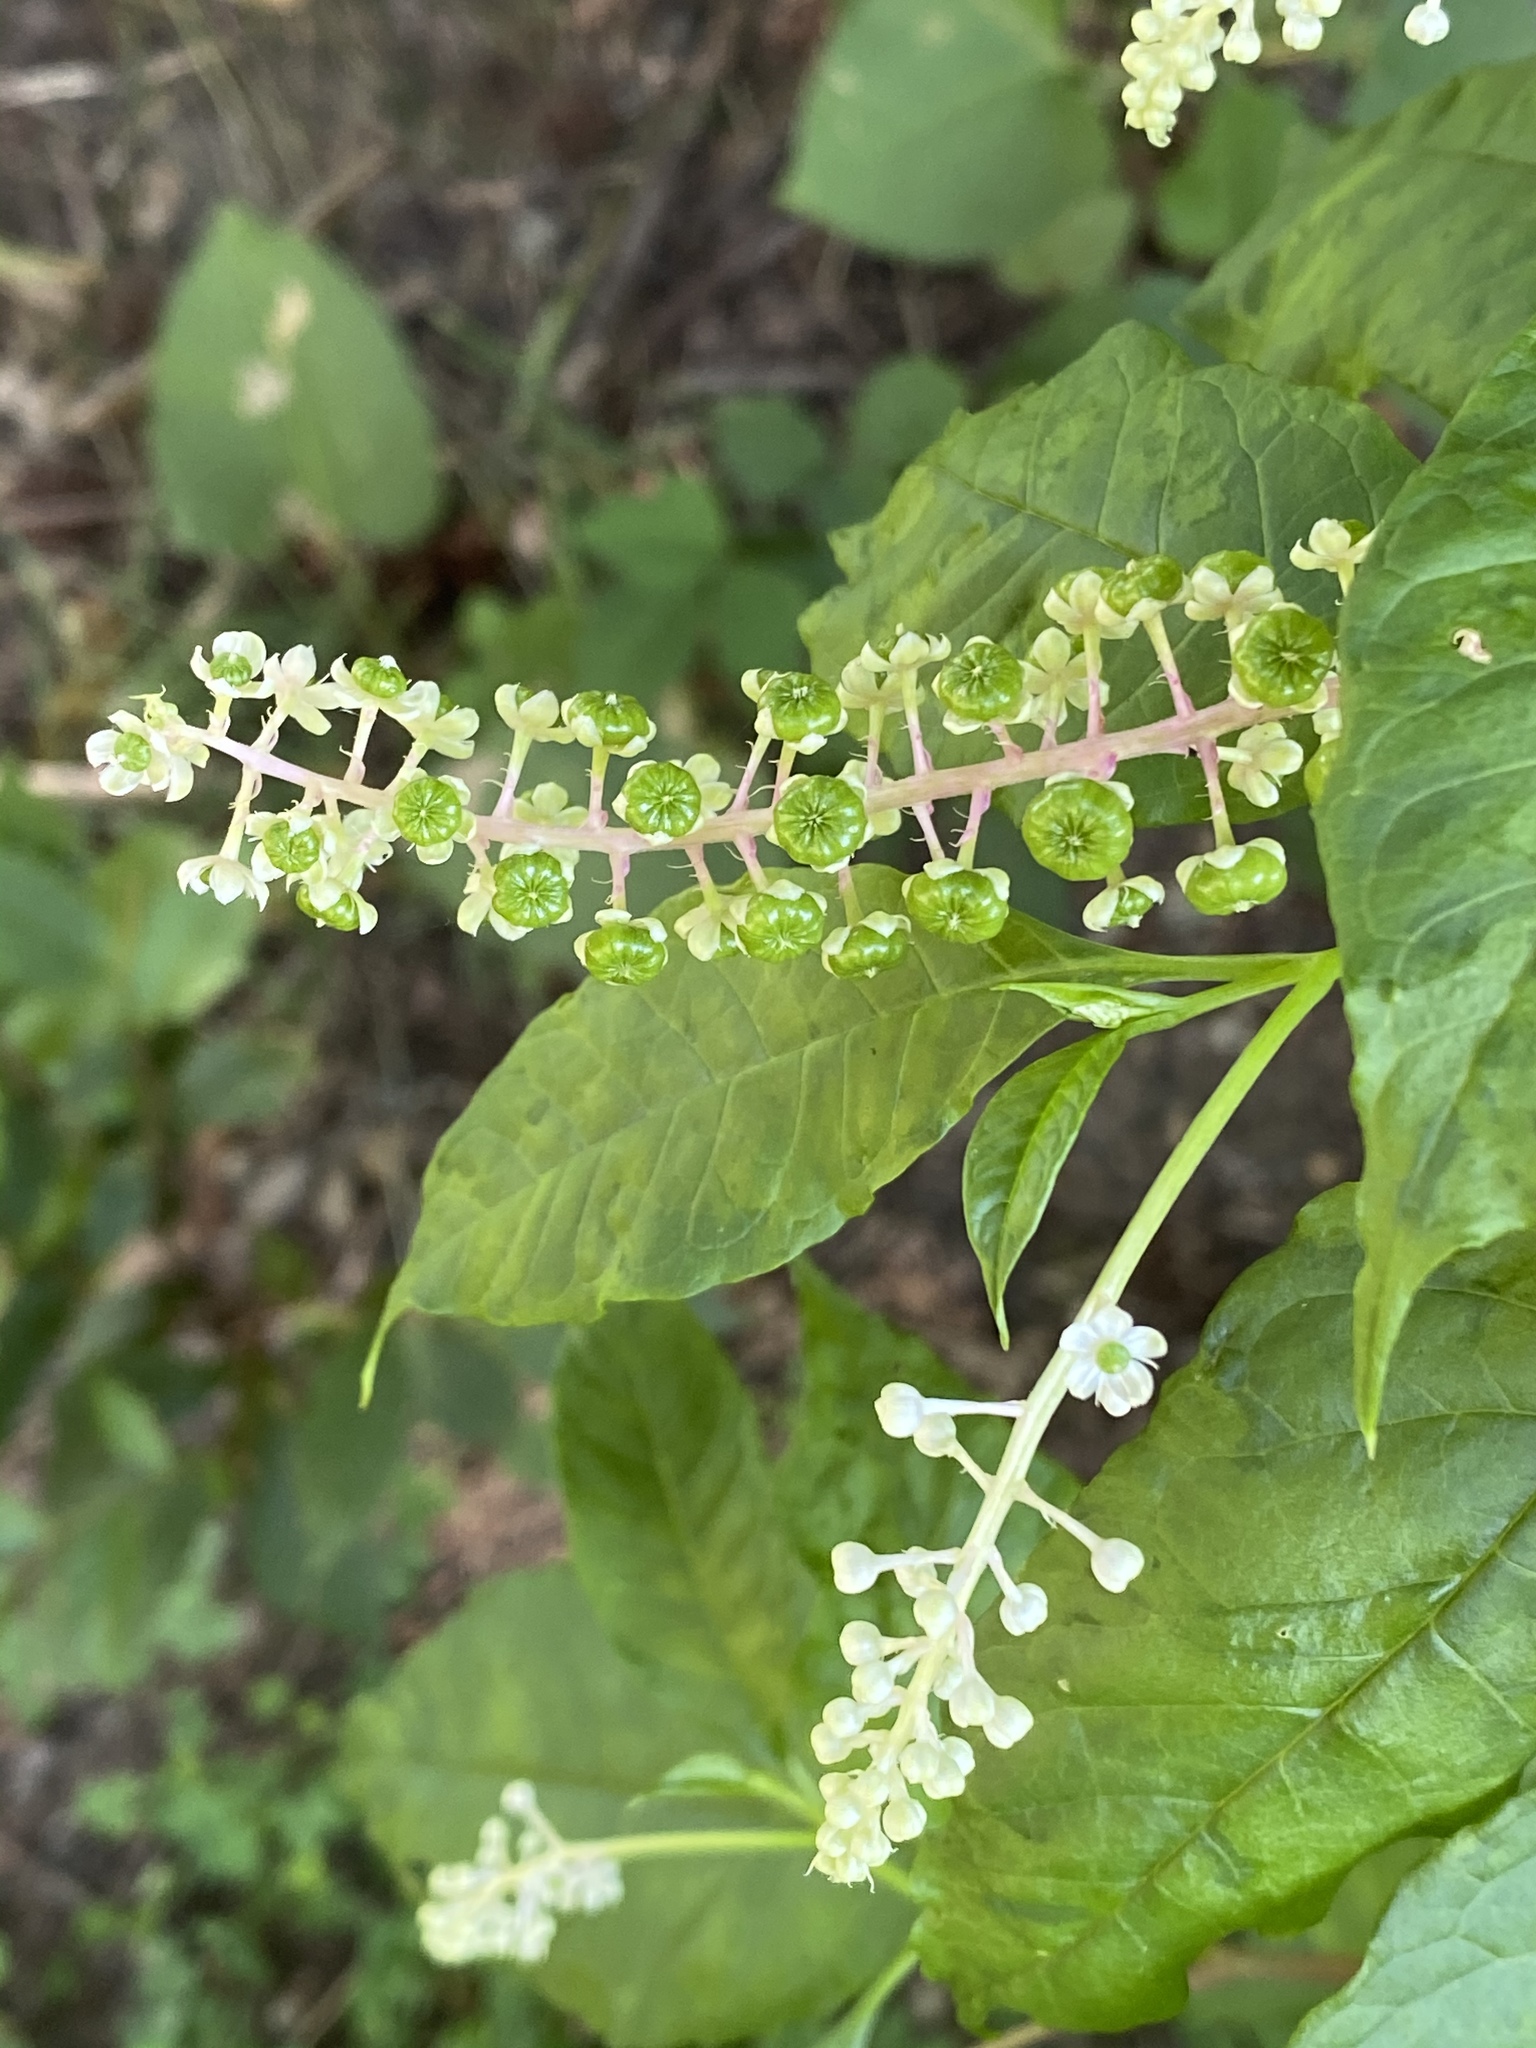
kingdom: Plantae
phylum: Tracheophyta
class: Magnoliopsida
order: Caryophyllales
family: Phytolaccaceae
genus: Phytolacca
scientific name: Phytolacca americana
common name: American pokeweed
